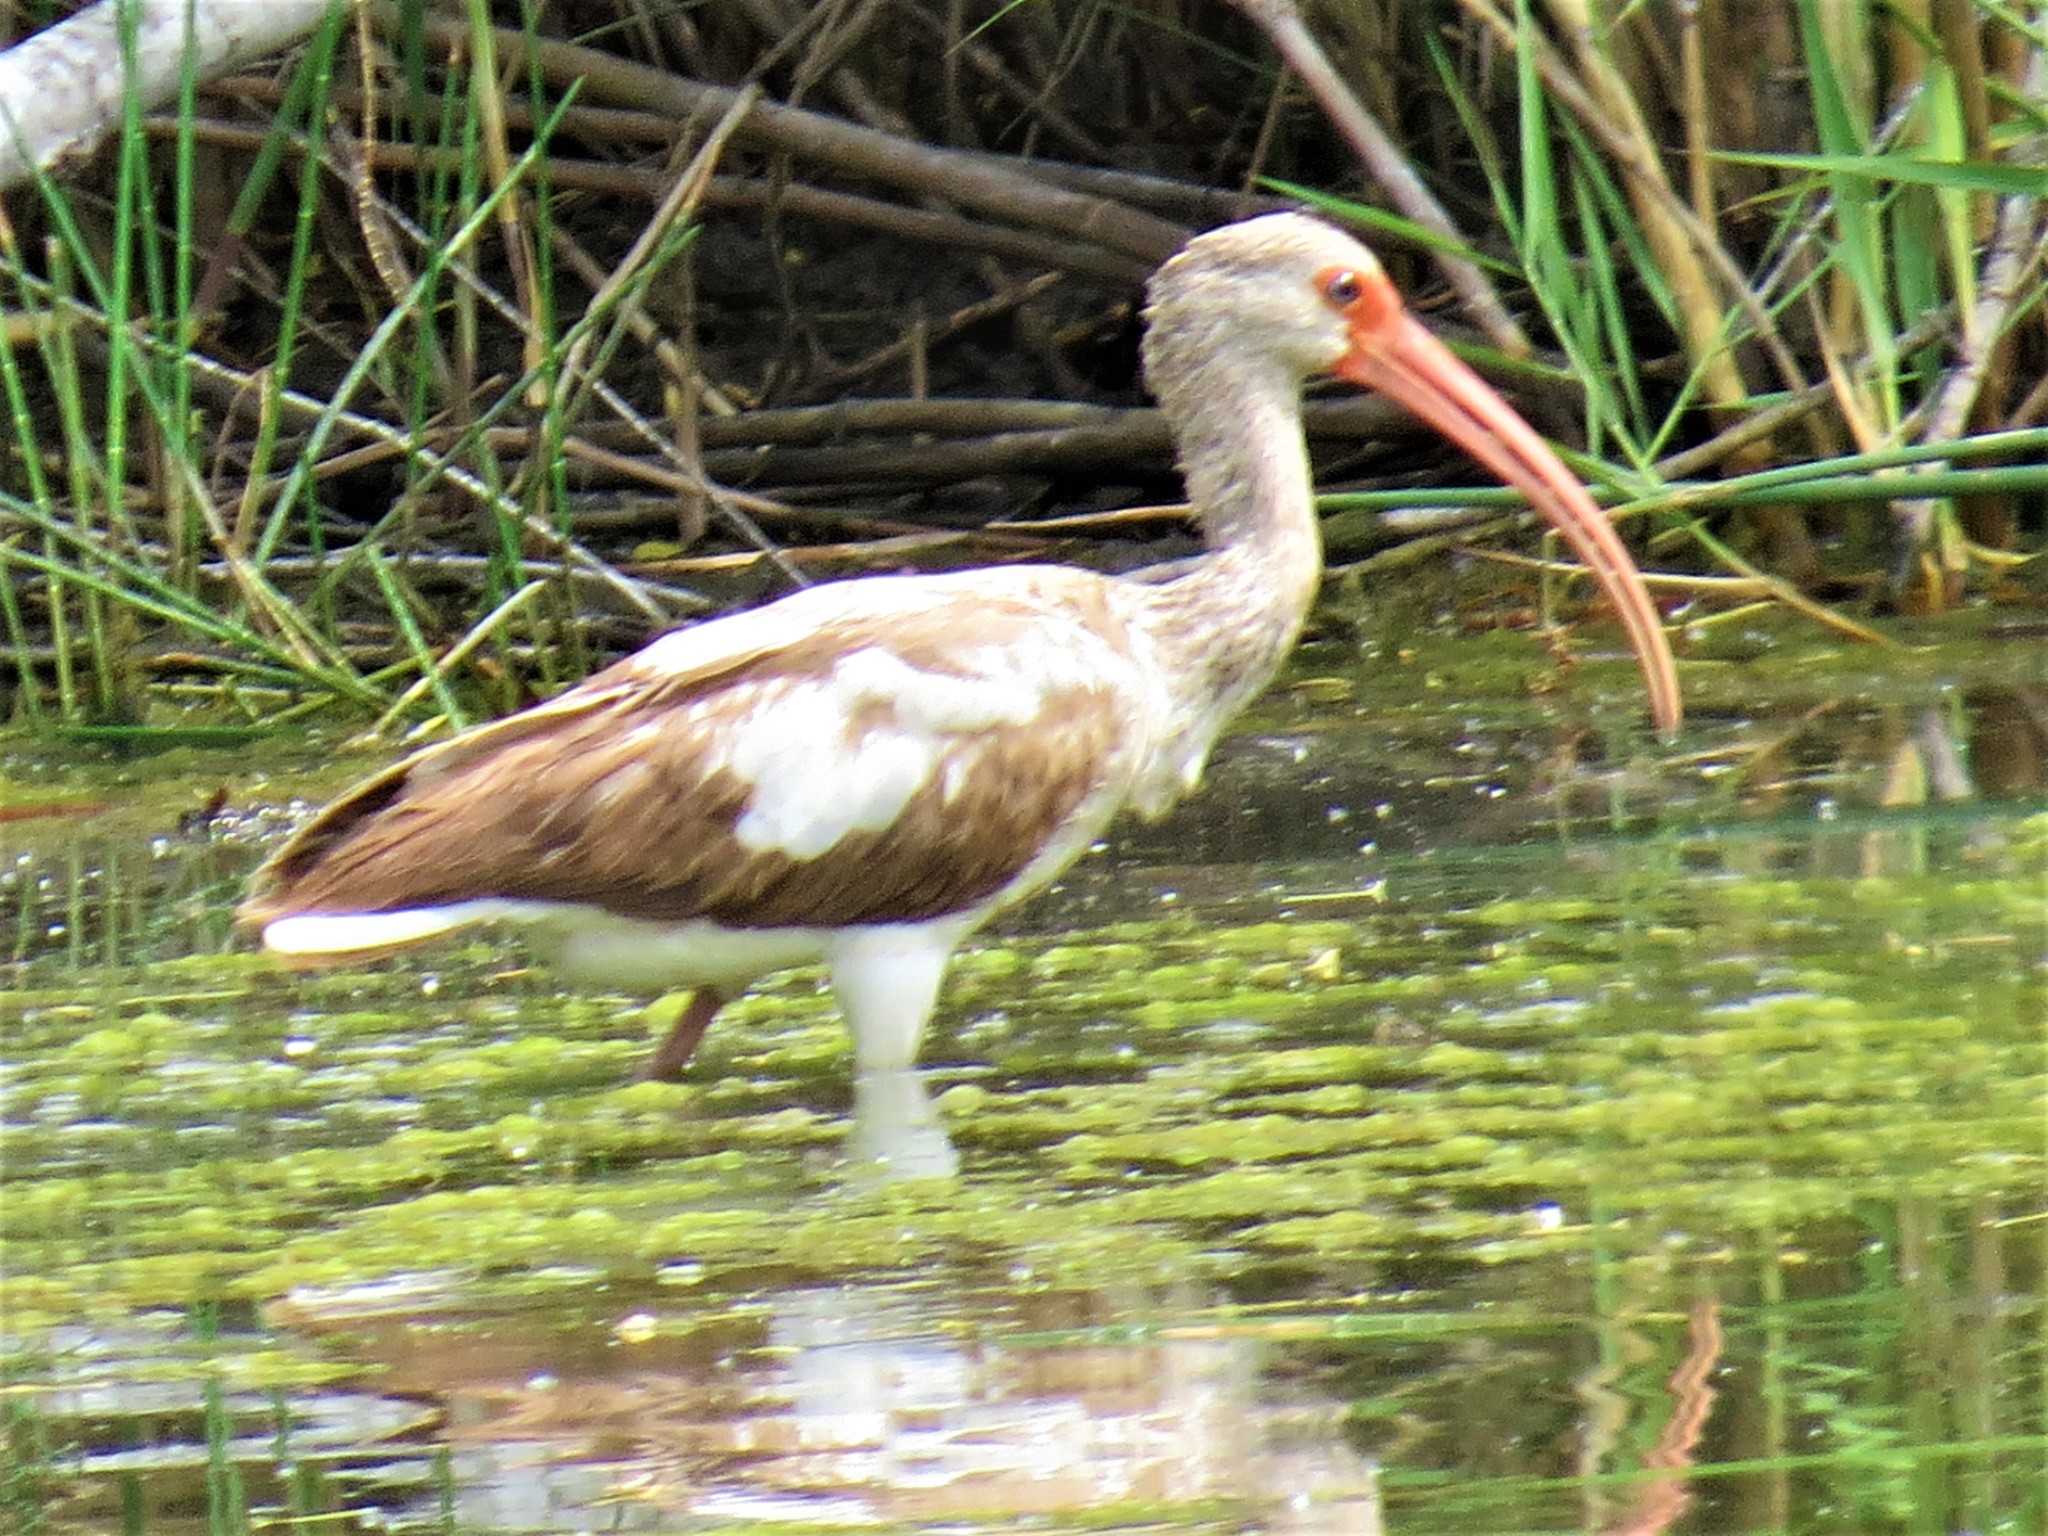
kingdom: Animalia
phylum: Chordata
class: Aves
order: Pelecaniformes
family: Threskiornithidae
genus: Eudocimus
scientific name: Eudocimus albus
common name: White ibis
